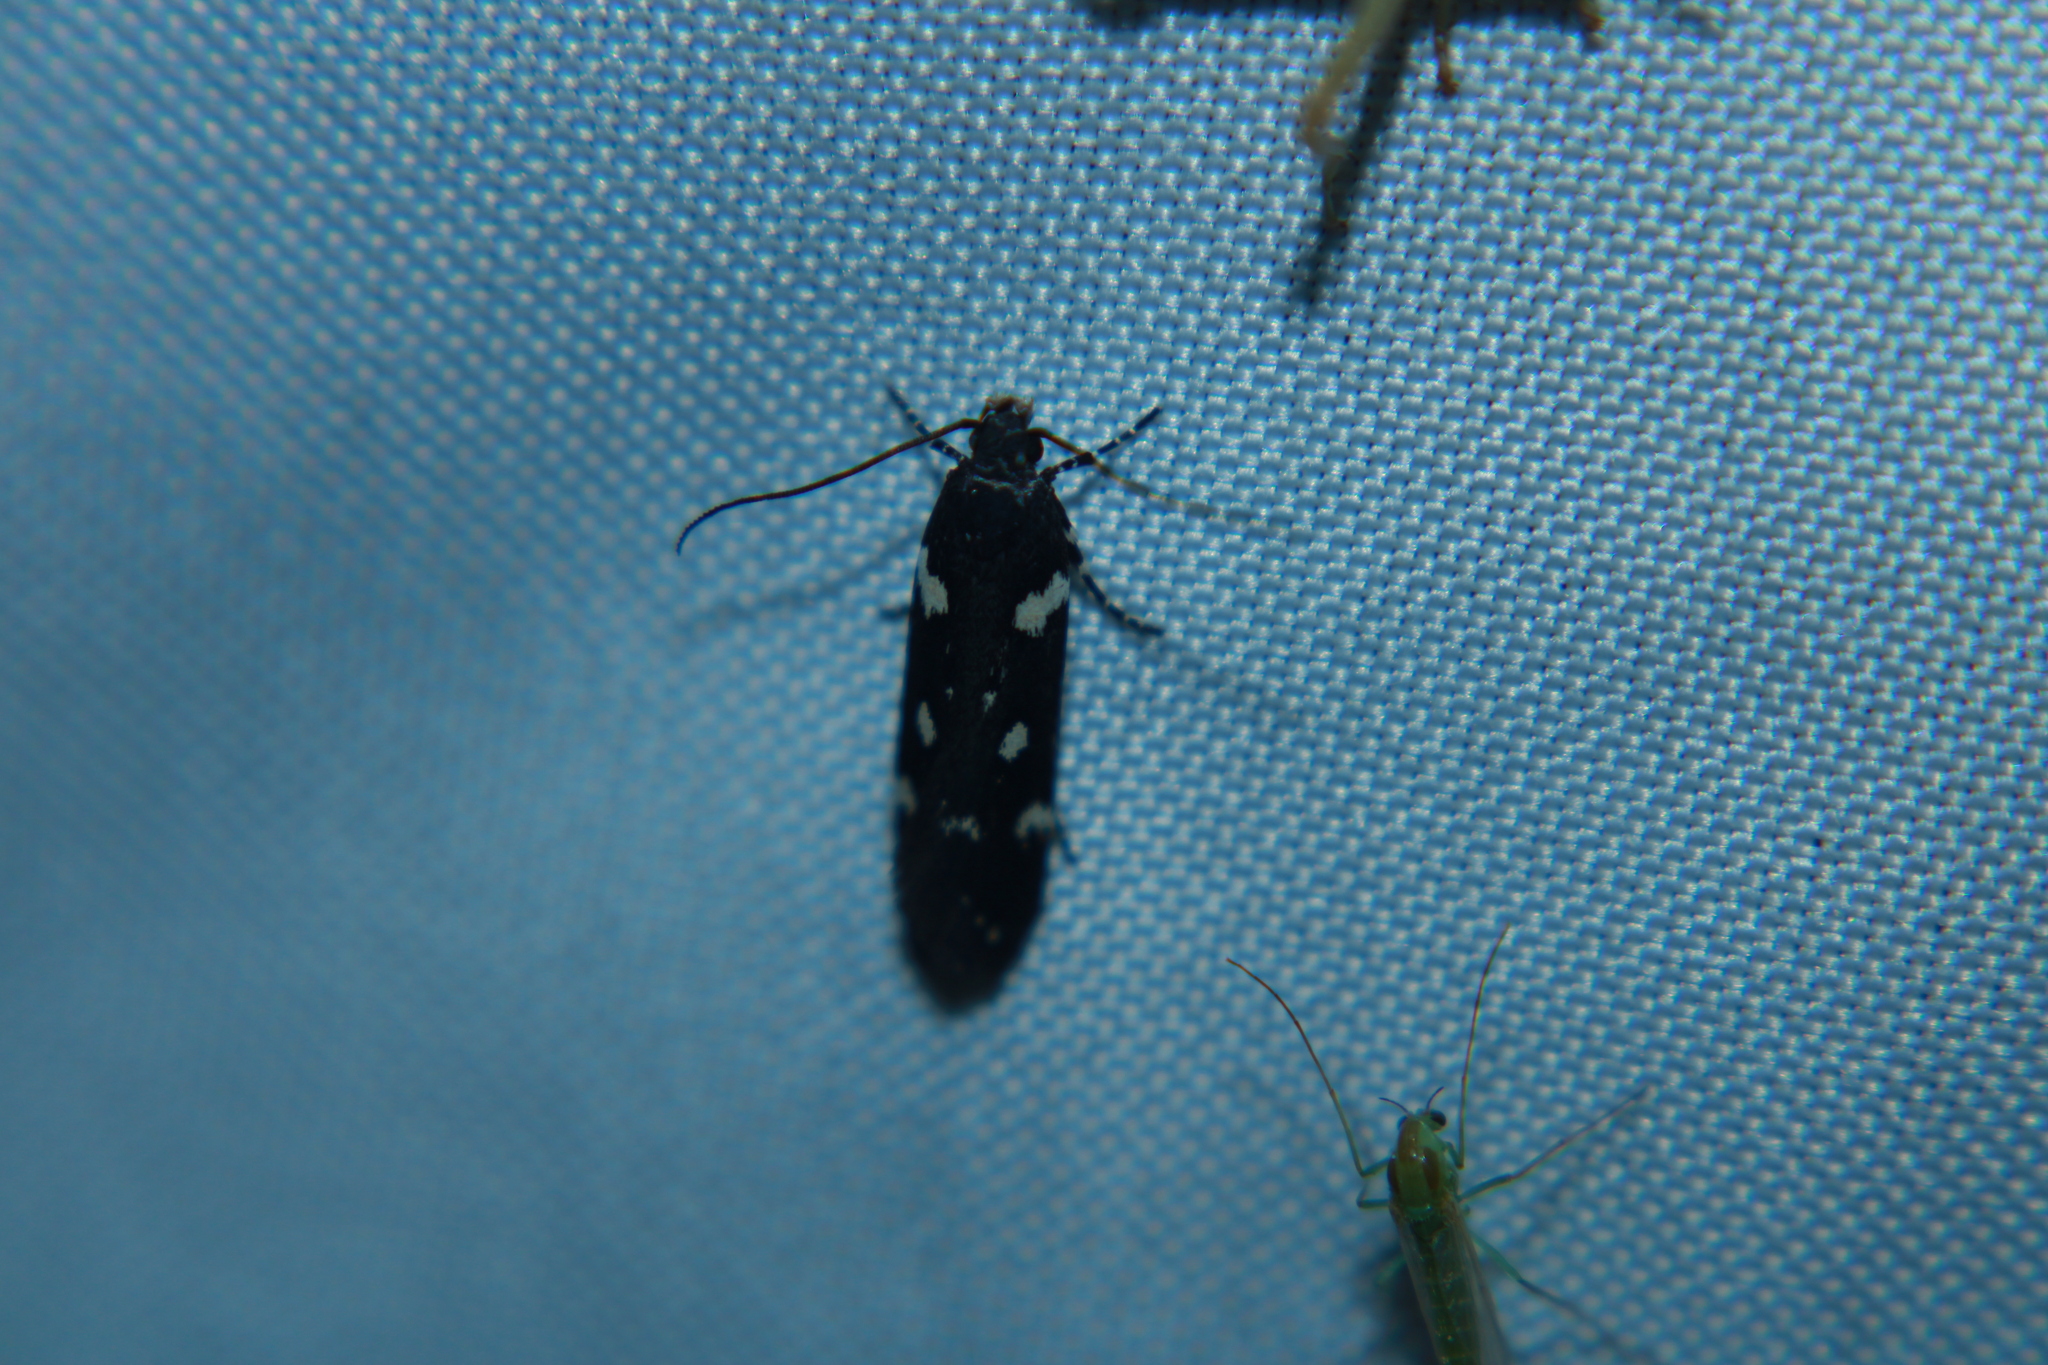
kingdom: Animalia
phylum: Arthropoda
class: Insecta
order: Lepidoptera
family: Gelechiidae
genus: Aroga
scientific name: Aroga compositella
